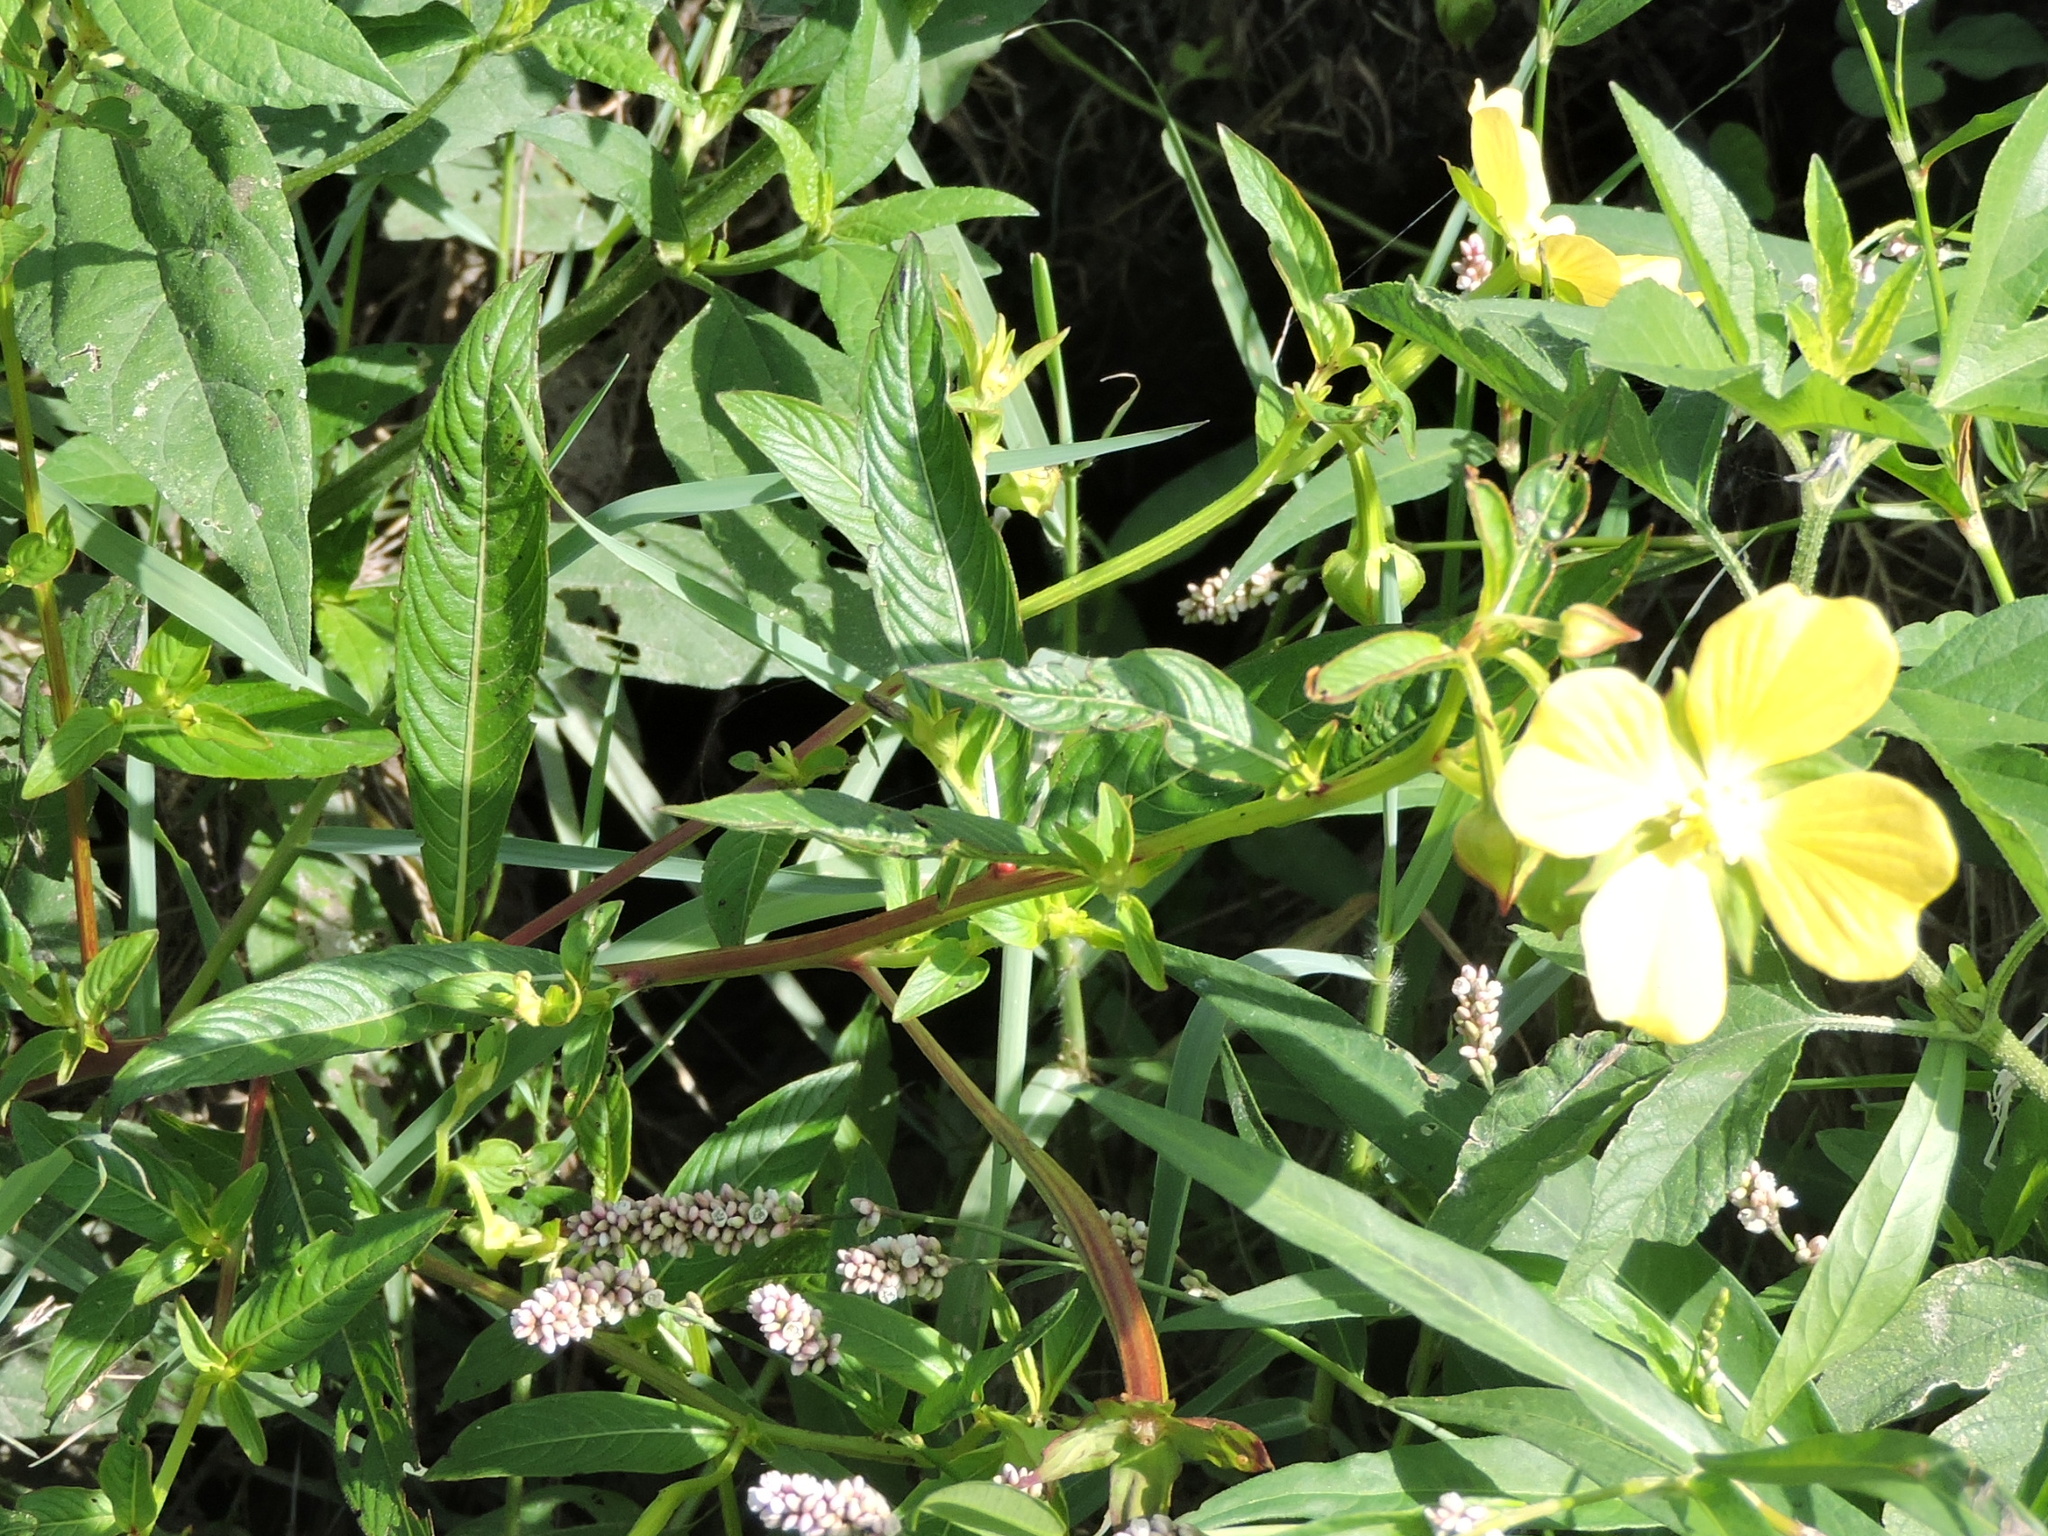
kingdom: Plantae
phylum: Tracheophyta
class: Magnoliopsida
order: Myrtales
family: Onagraceae
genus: Ludwigia
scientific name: Ludwigia octovalvis
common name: Water-primrose
